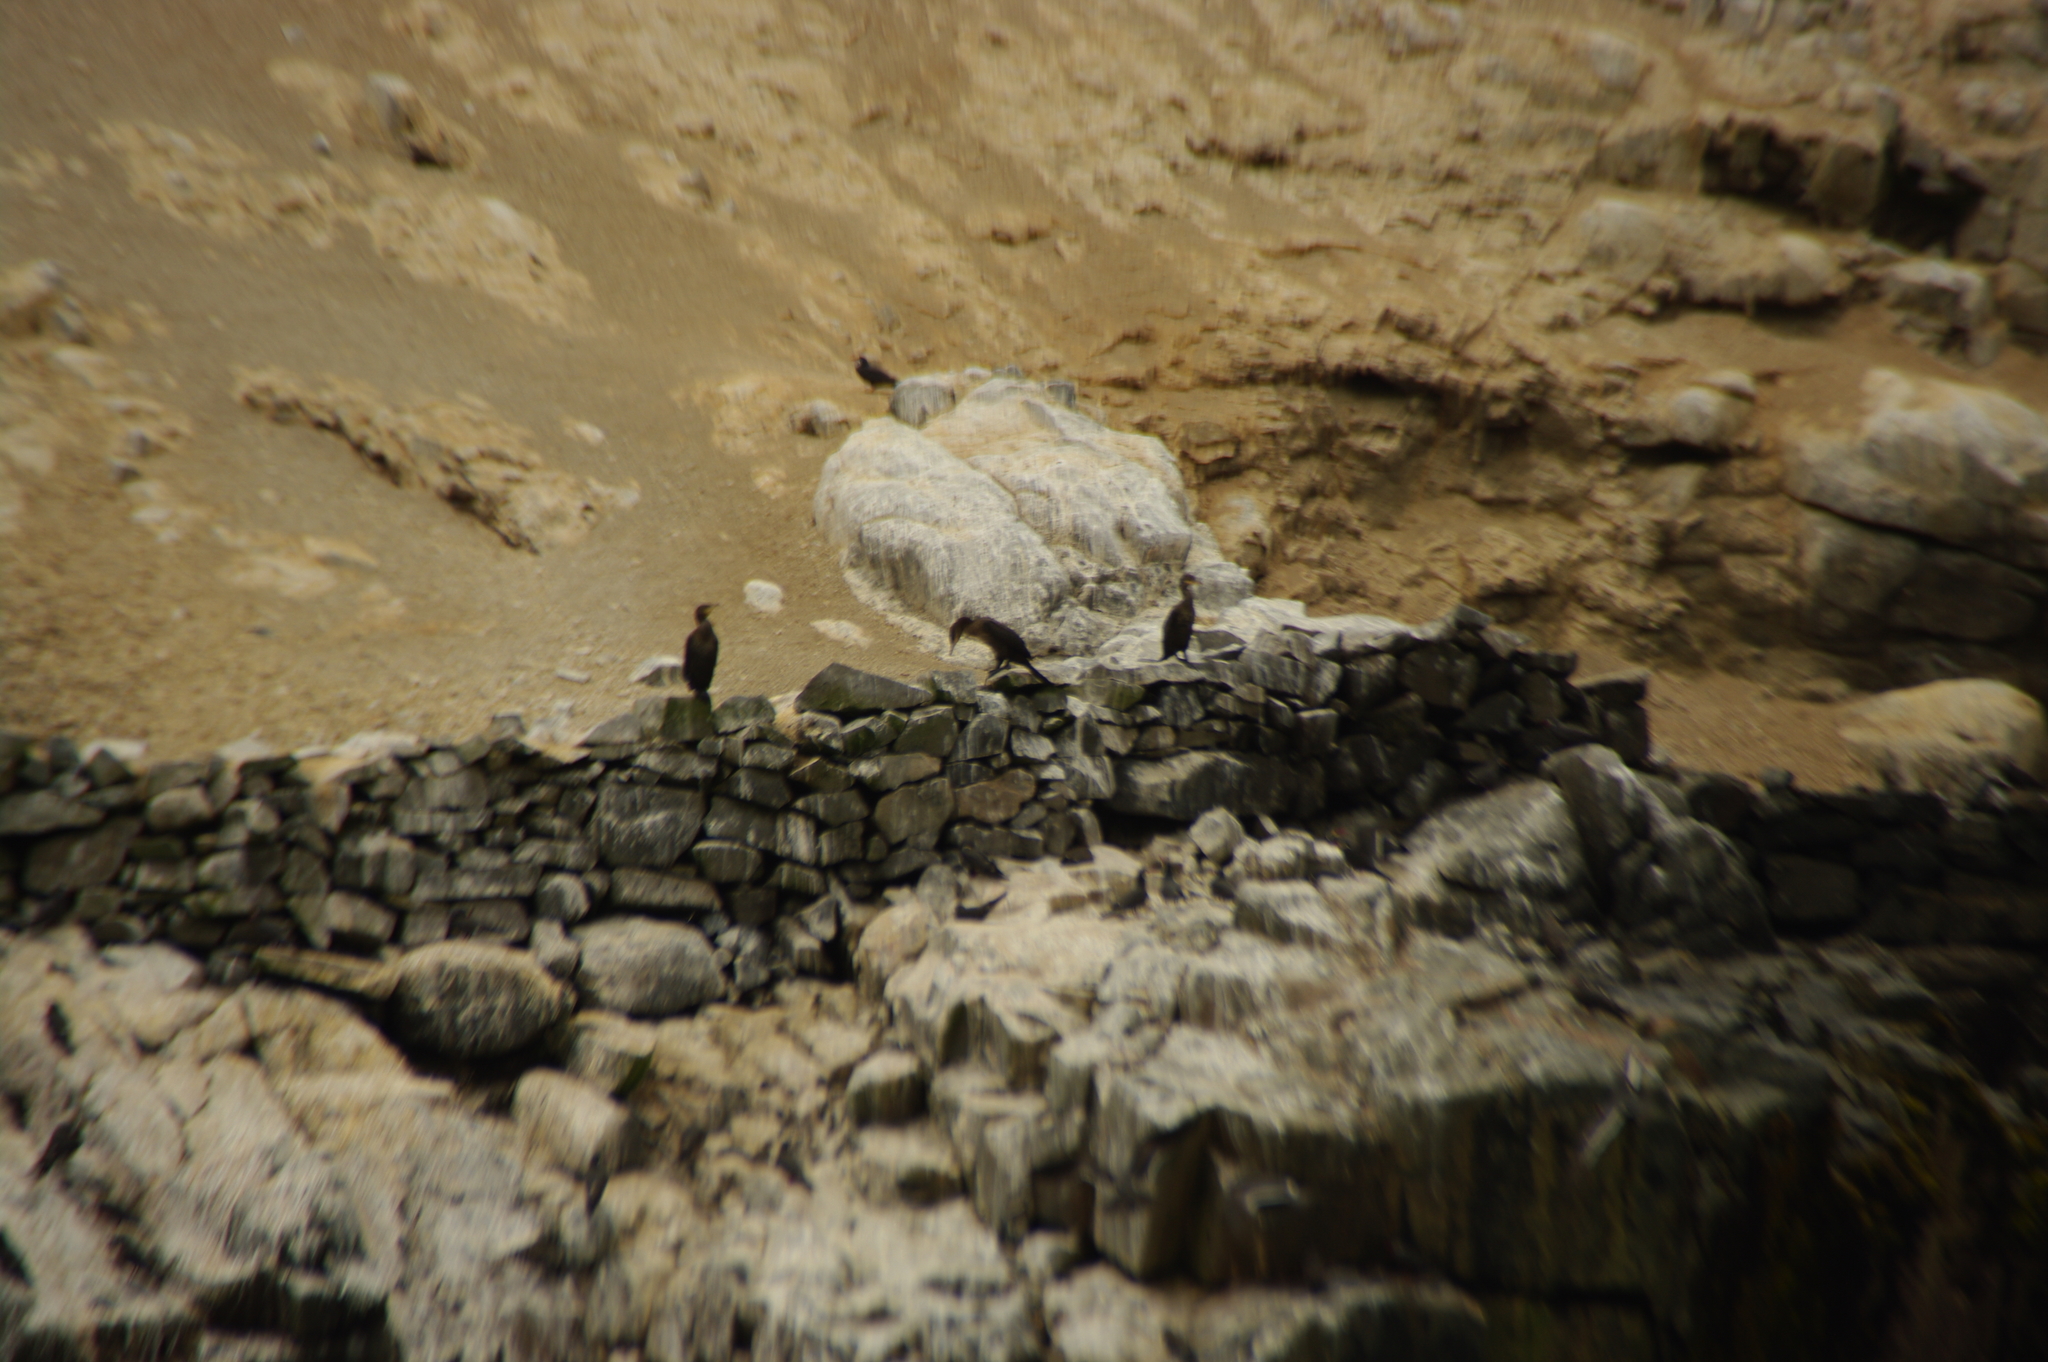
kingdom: Animalia
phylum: Chordata
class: Aves
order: Suliformes
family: Phalacrocoracidae
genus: Phalacrocorax
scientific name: Phalacrocorax brasilianus
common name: Neotropic cormorant
